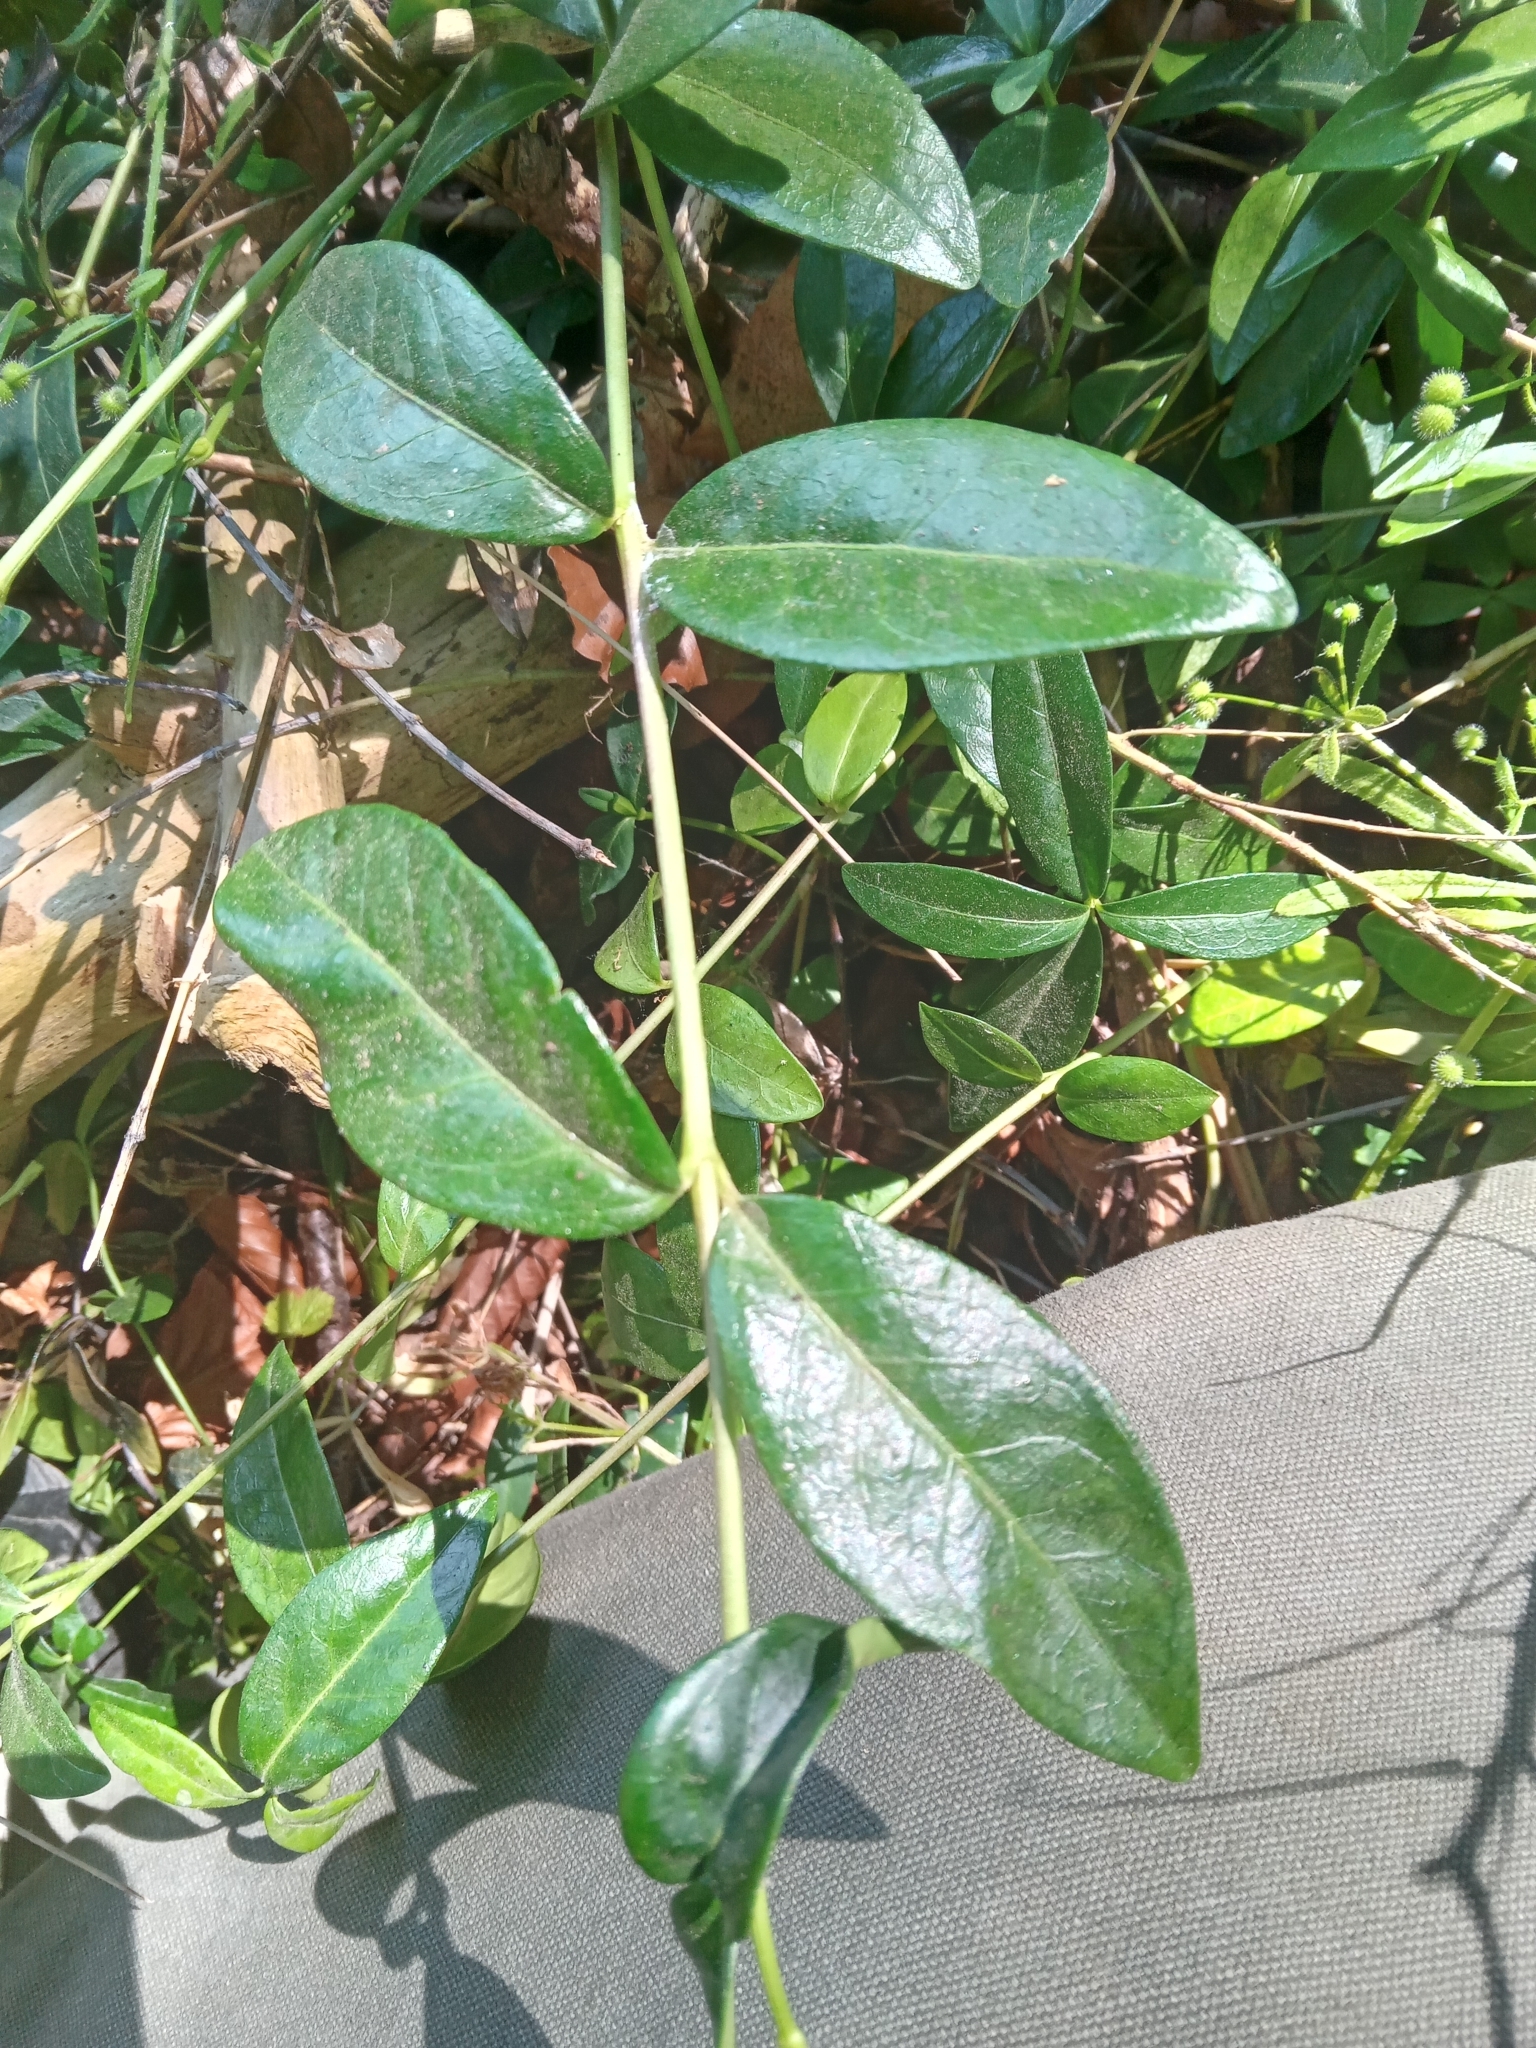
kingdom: Plantae
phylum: Tracheophyta
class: Magnoliopsida
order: Gentianales
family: Apocynaceae
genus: Vinca
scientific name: Vinca minor
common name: Lesser periwinkle
